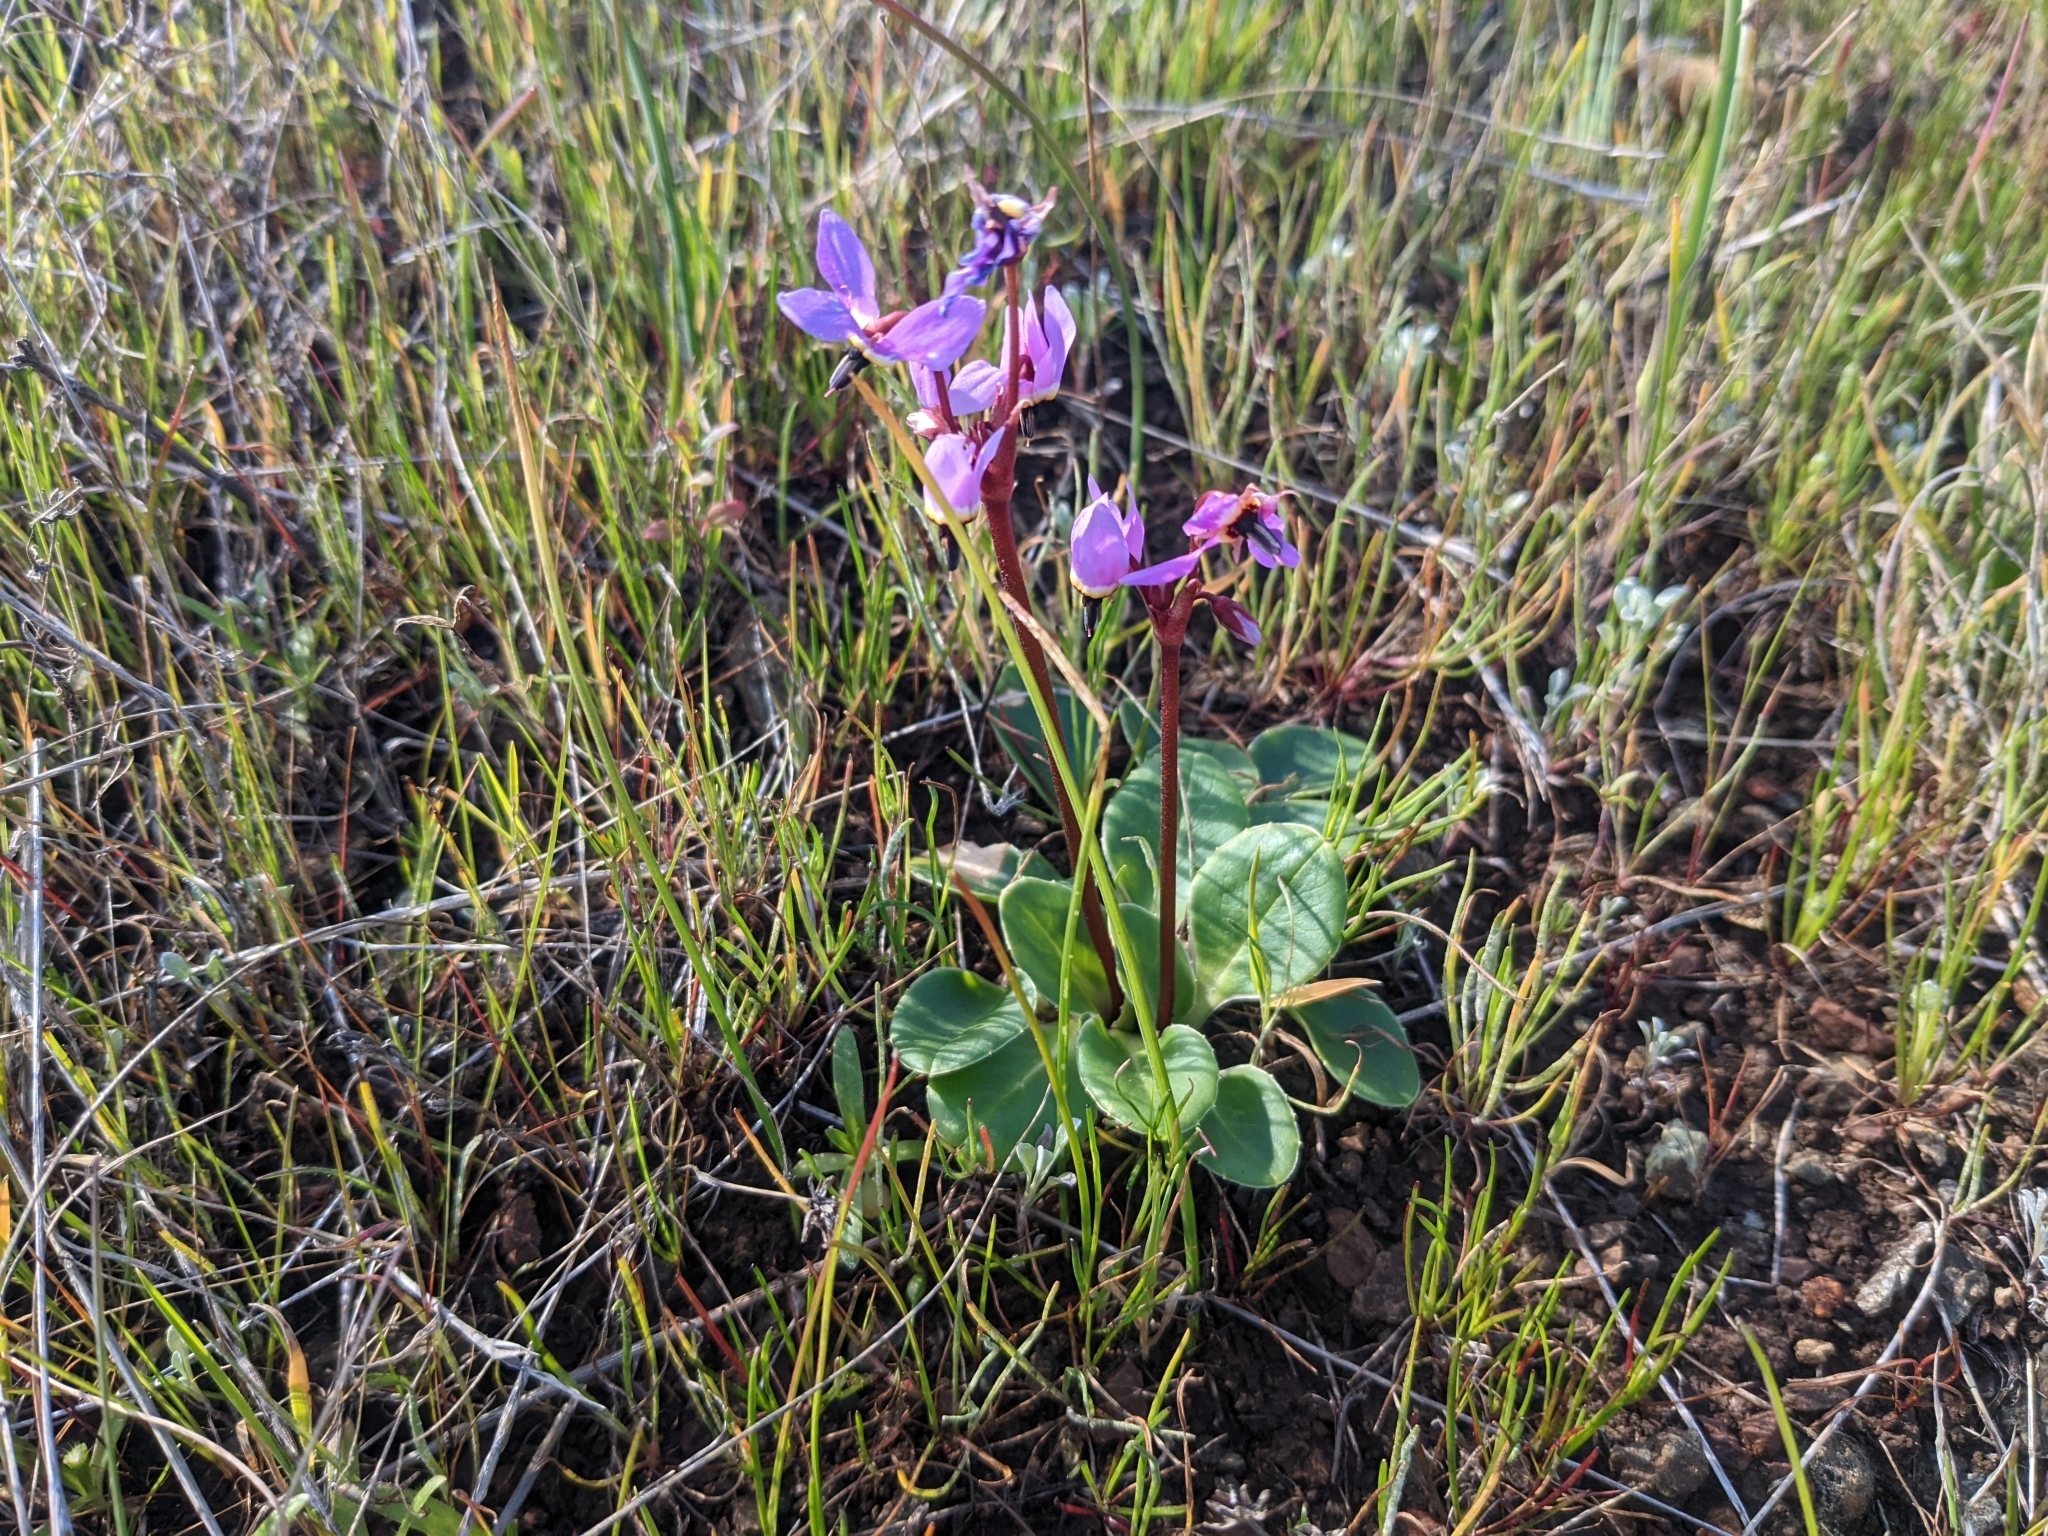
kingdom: Plantae
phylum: Tracheophyta
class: Magnoliopsida
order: Ericales
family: Primulaceae
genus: Dodecatheon
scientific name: Dodecatheon hendersonii
